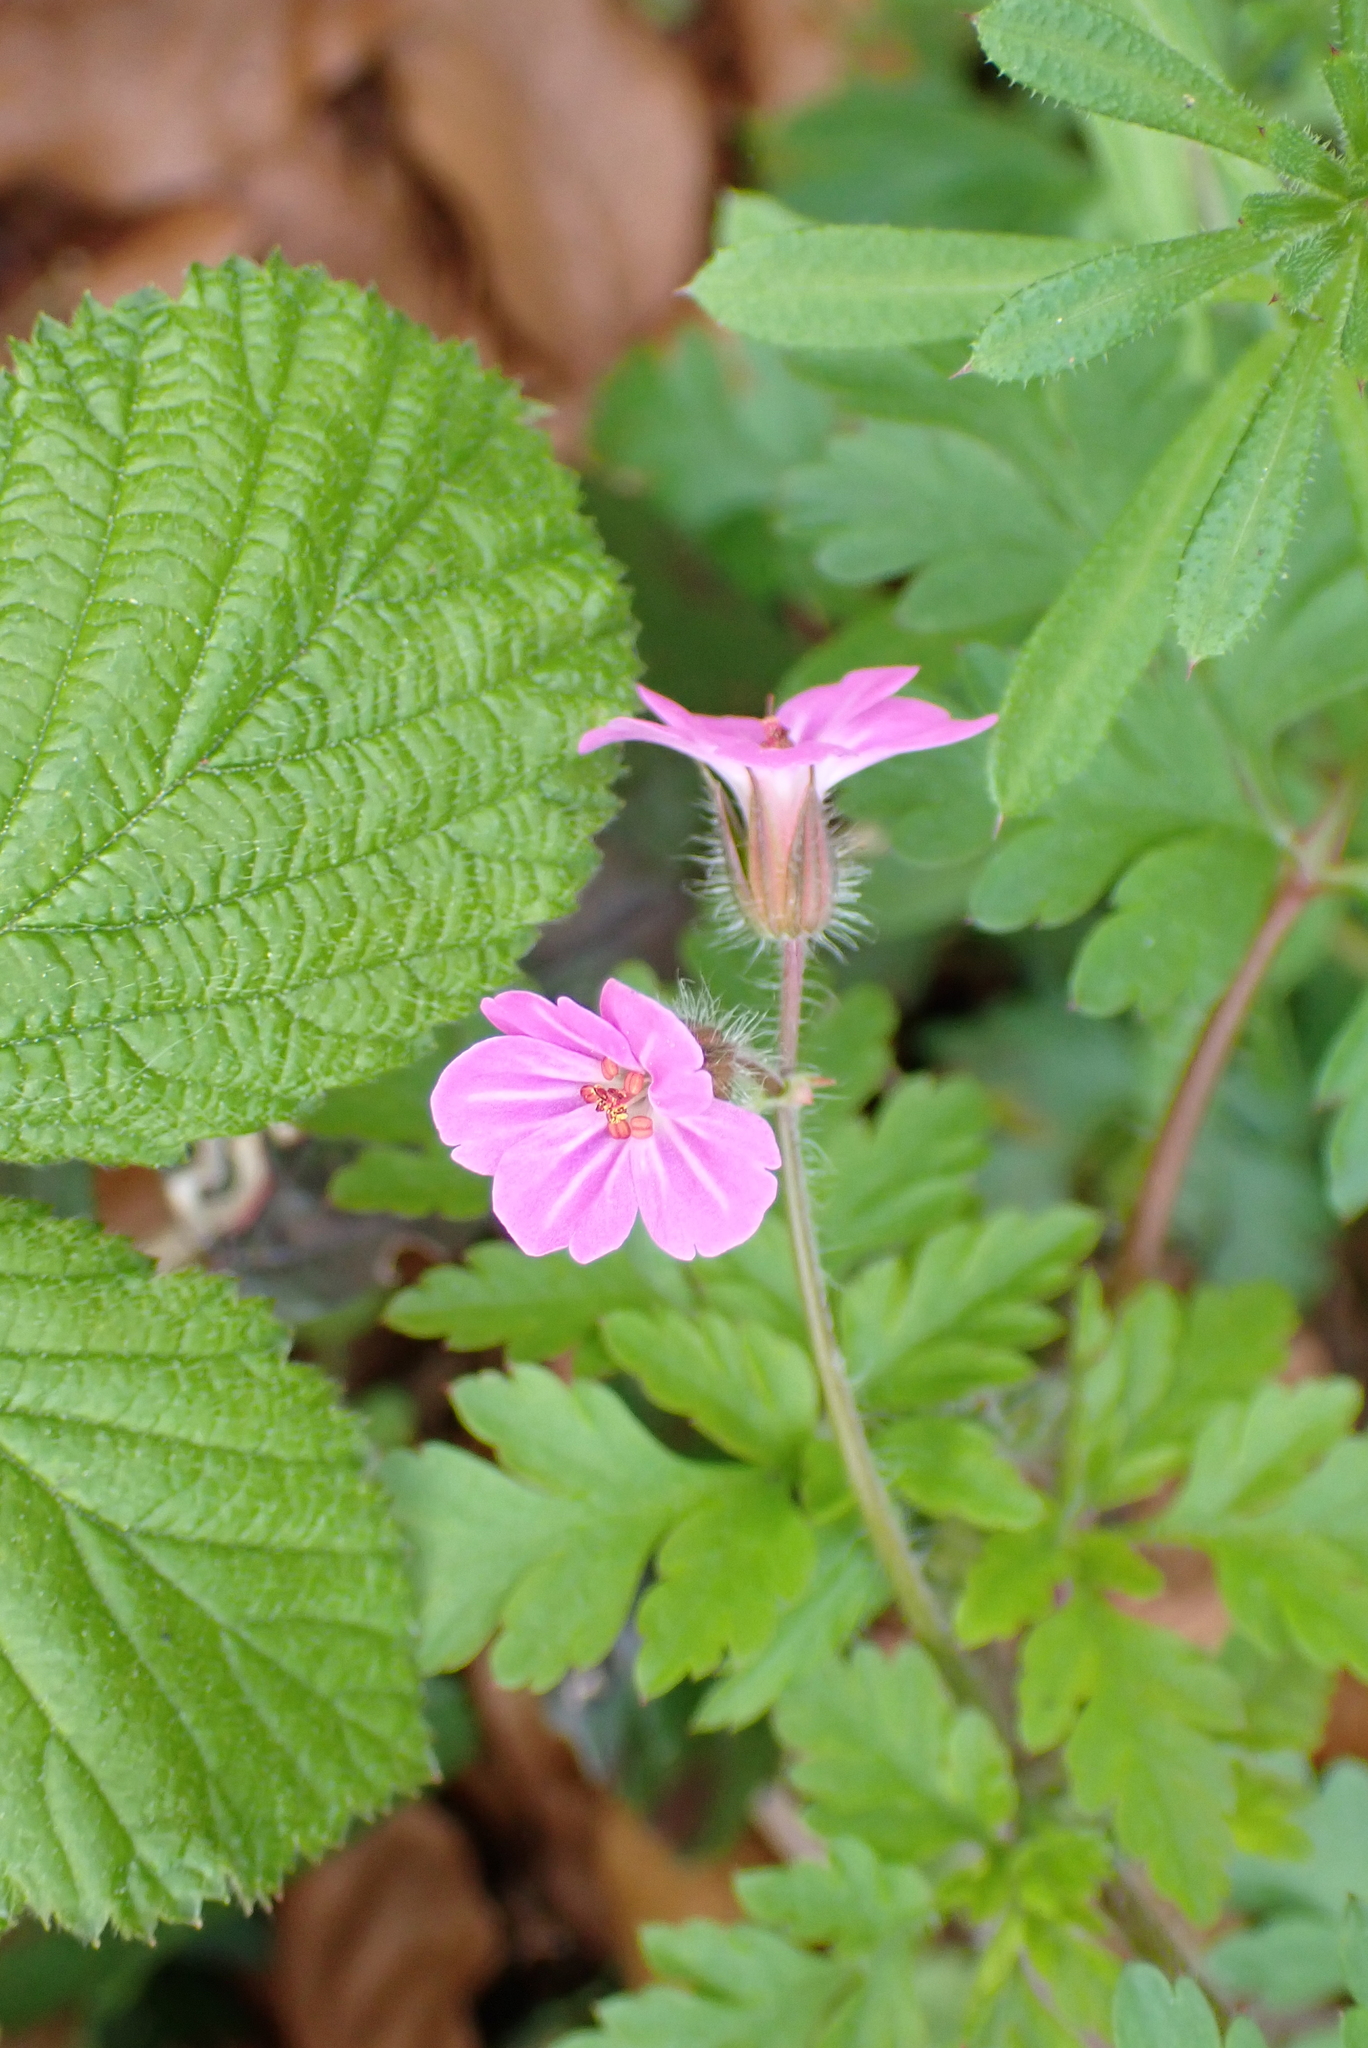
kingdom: Plantae
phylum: Tracheophyta
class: Magnoliopsida
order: Geraniales
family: Geraniaceae
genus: Geranium
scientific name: Geranium robertianum
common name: Herb-robert
